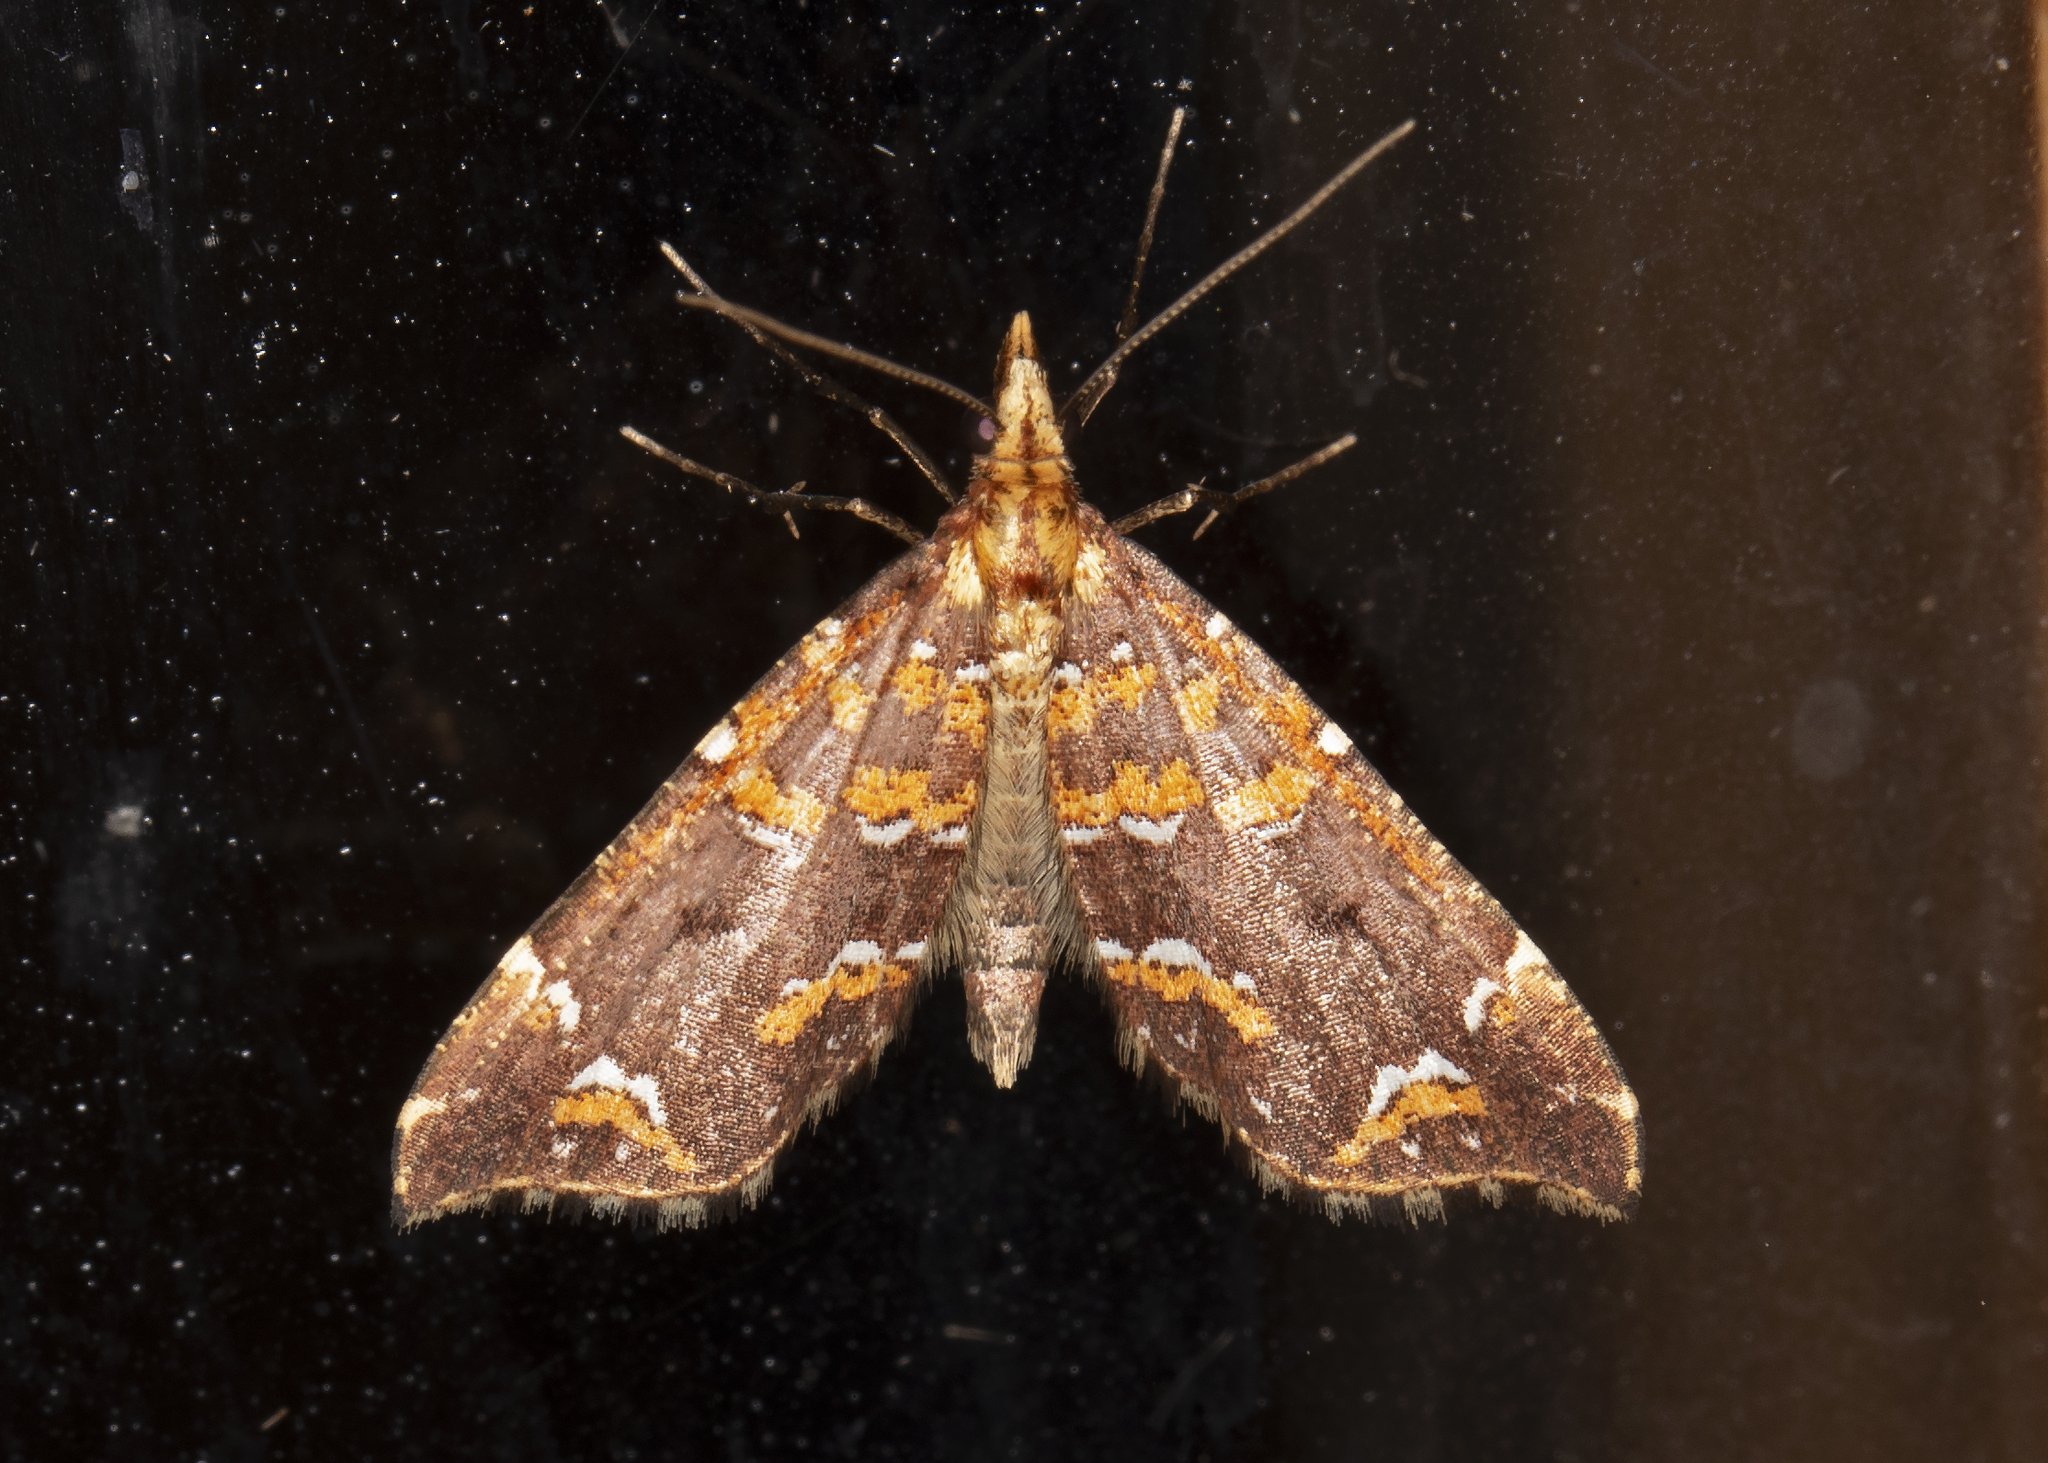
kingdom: Animalia
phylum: Arthropoda
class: Insecta
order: Lepidoptera
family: Geometridae
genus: Psaliodes
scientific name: Psaliodes tripita
